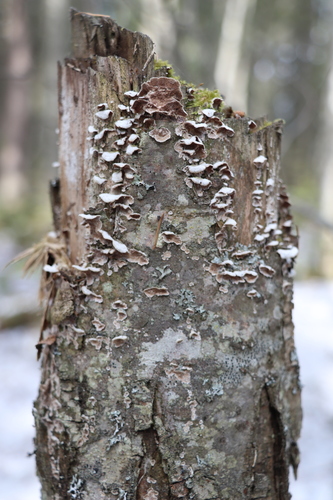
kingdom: Fungi
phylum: Basidiomycota
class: Agaricomycetes
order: Hymenochaetales
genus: Trichaptum
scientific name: Trichaptum fuscoviolaceum
